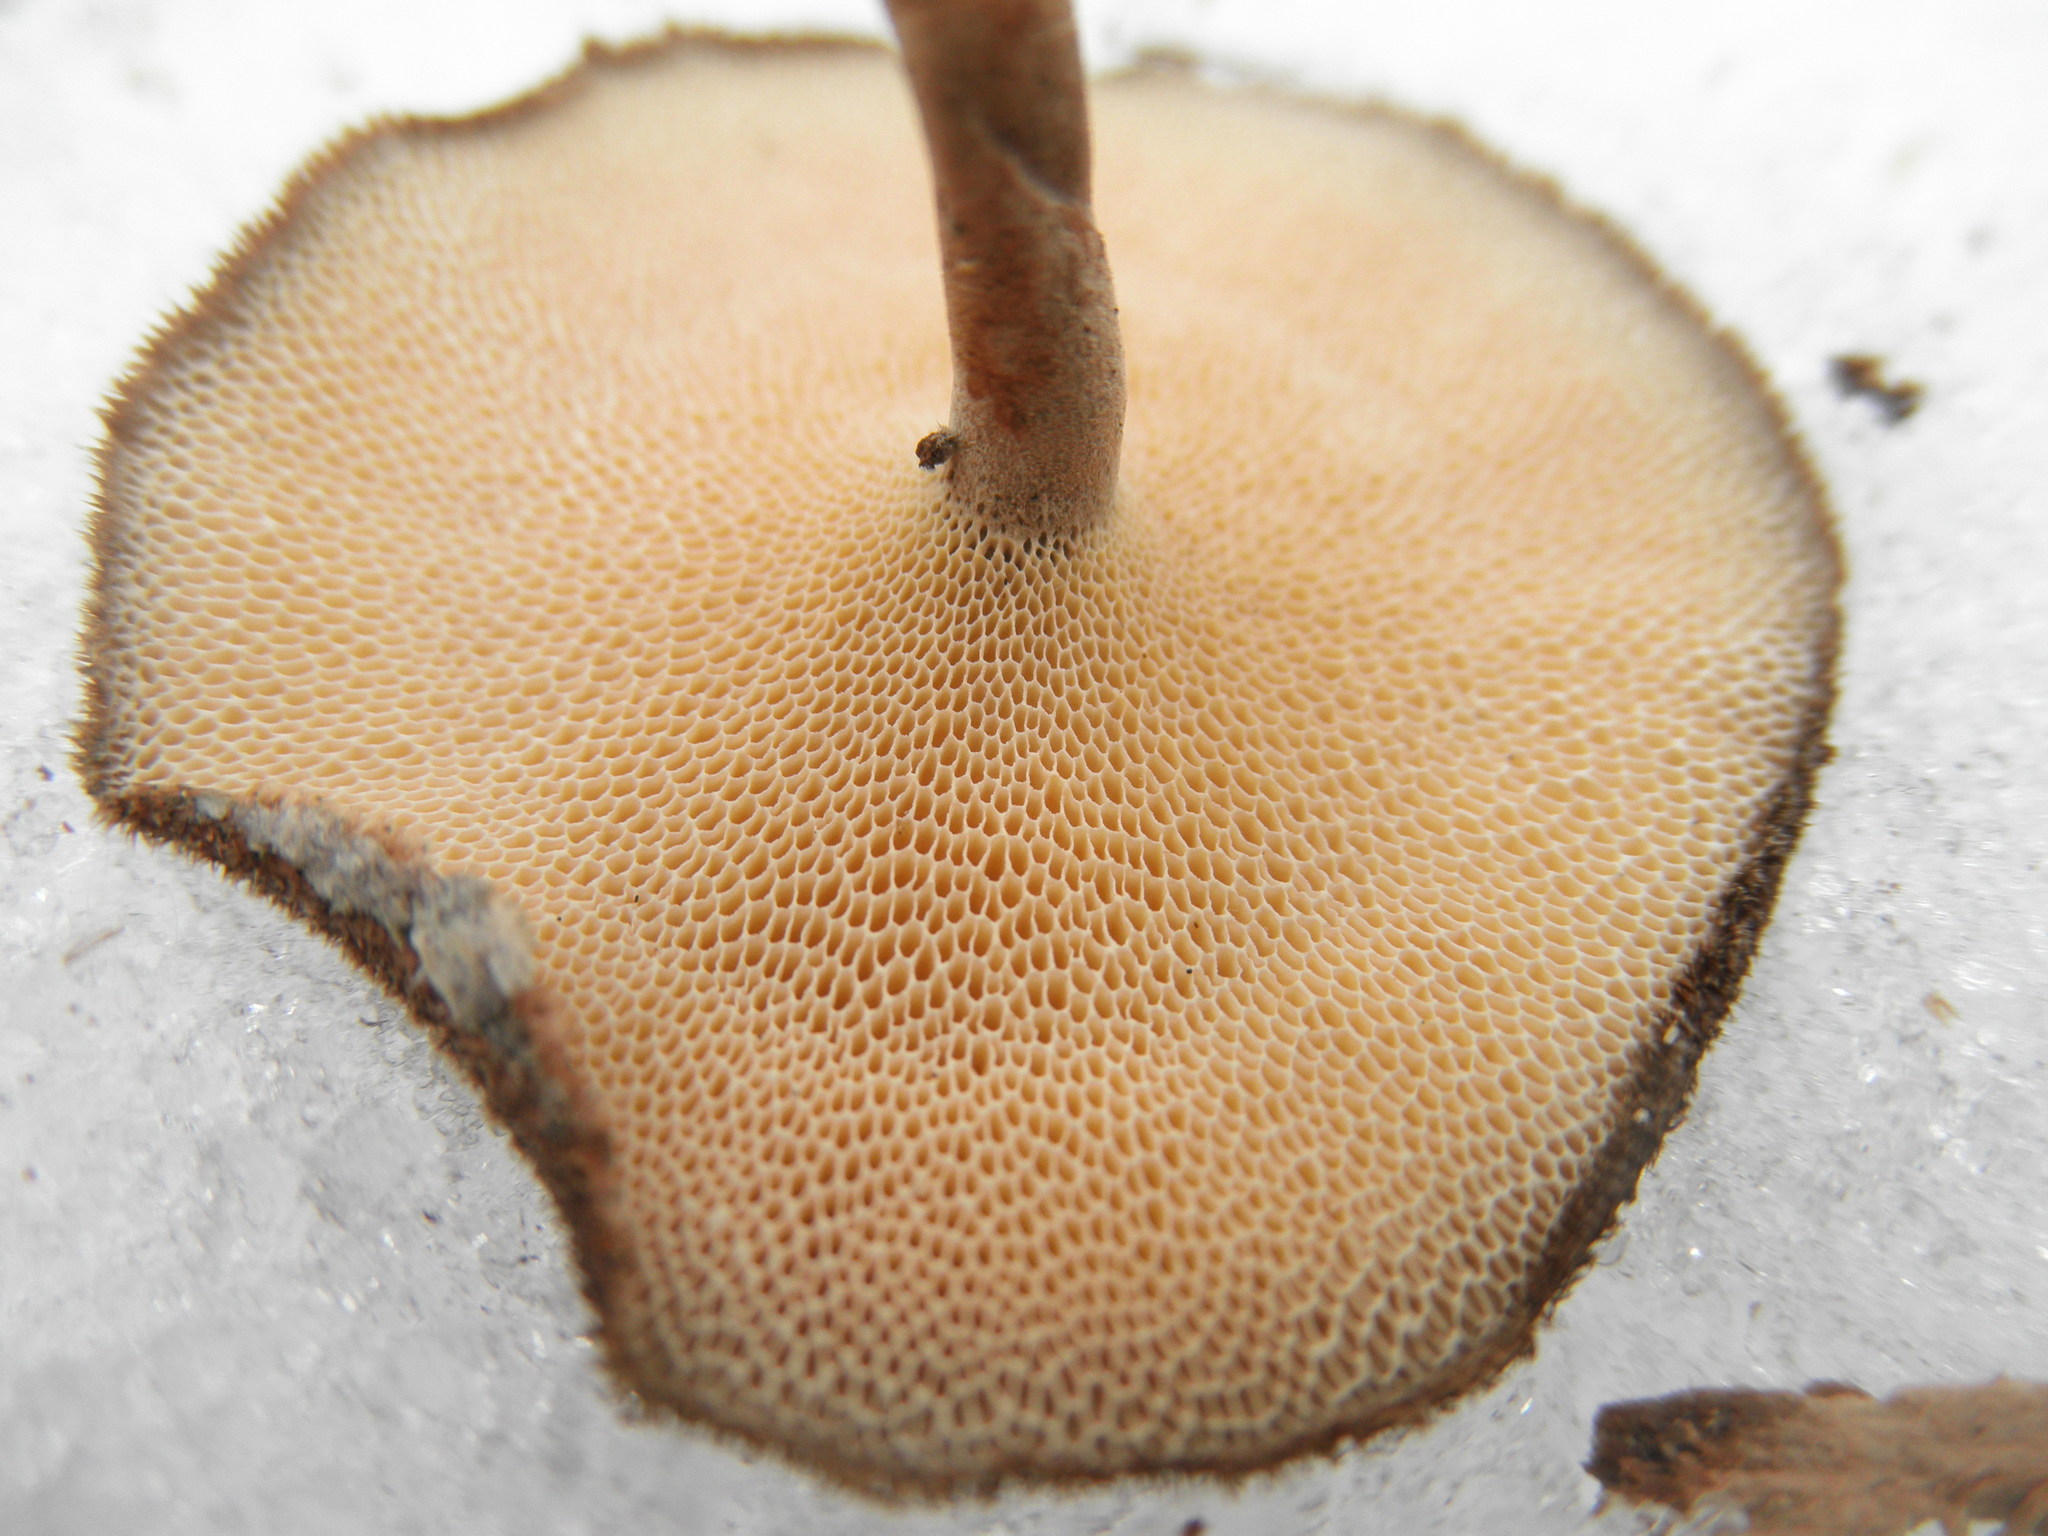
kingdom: Fungi
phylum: Basidiomycota
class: Agaricomycetes
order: Polyporales
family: Polyporaceae
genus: Lentinus
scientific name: Lentinus brumalis
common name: Winter polypore
